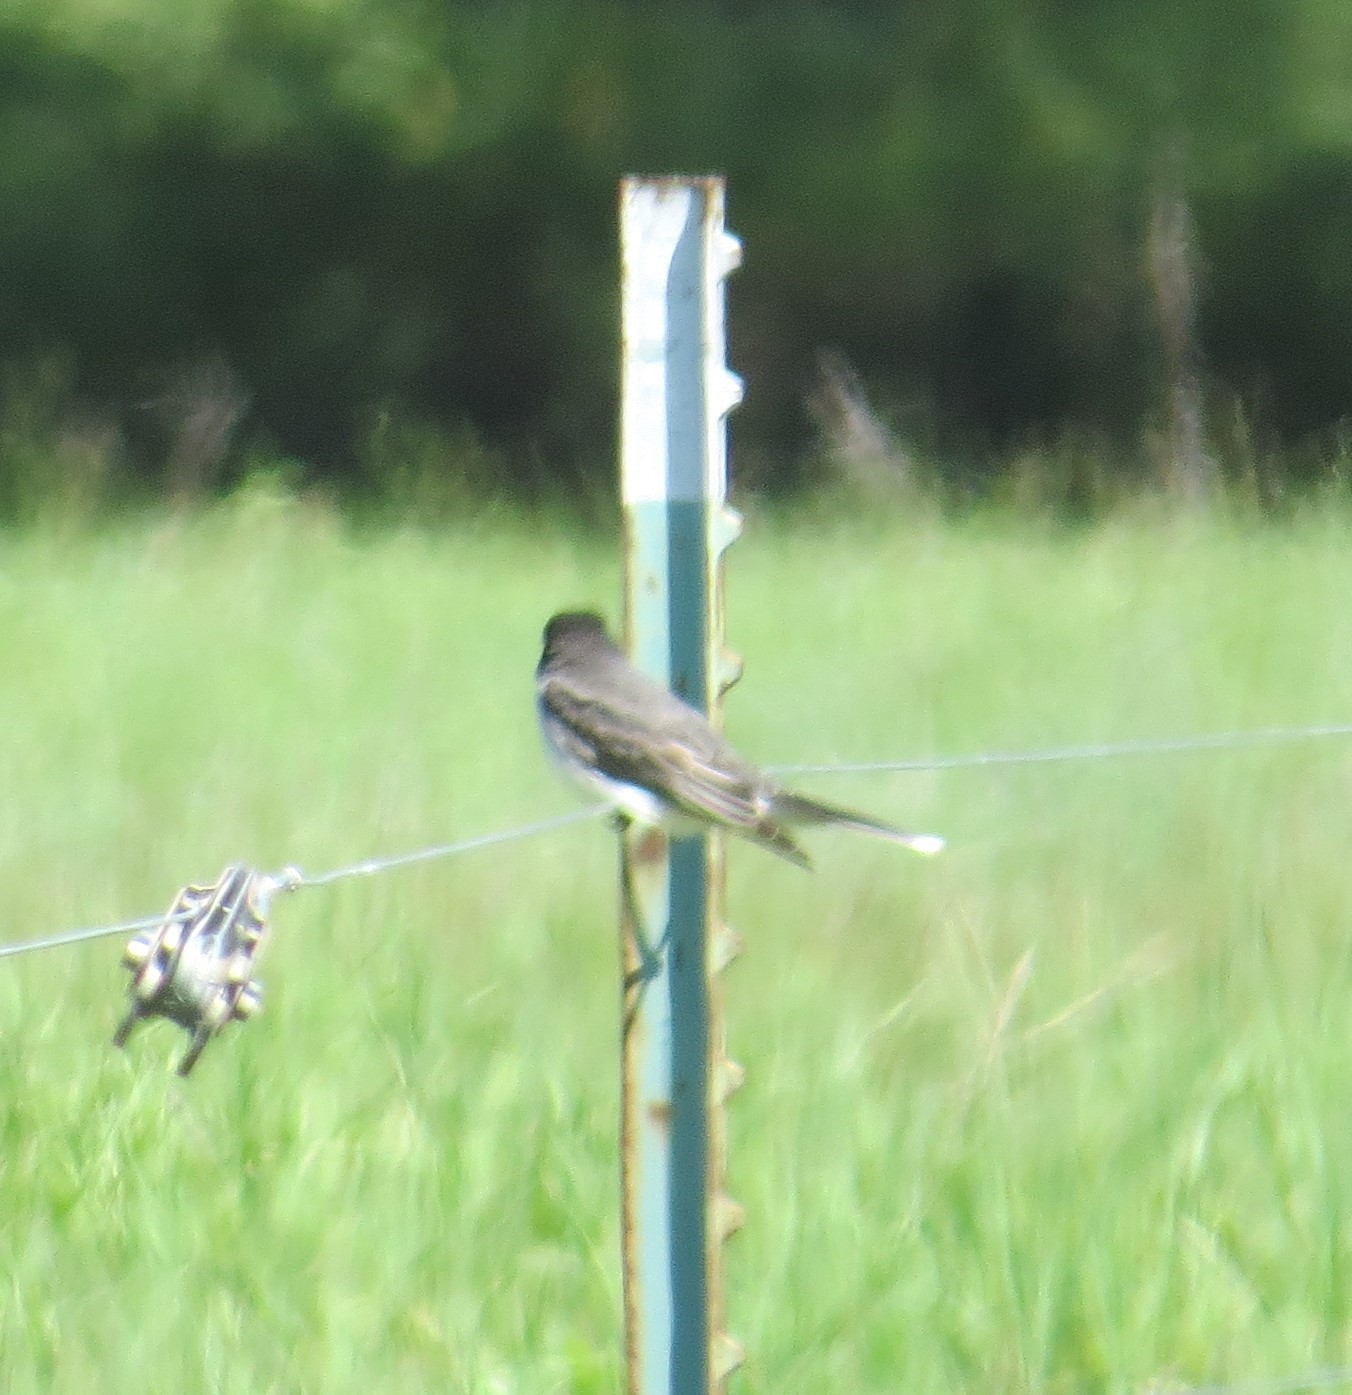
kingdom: Animalia
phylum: Chordata
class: Aves
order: Passeriformes
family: Tyrannidae
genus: Tyrannus
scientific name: Tyrannus tyrannus
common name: Eastern kingbird
